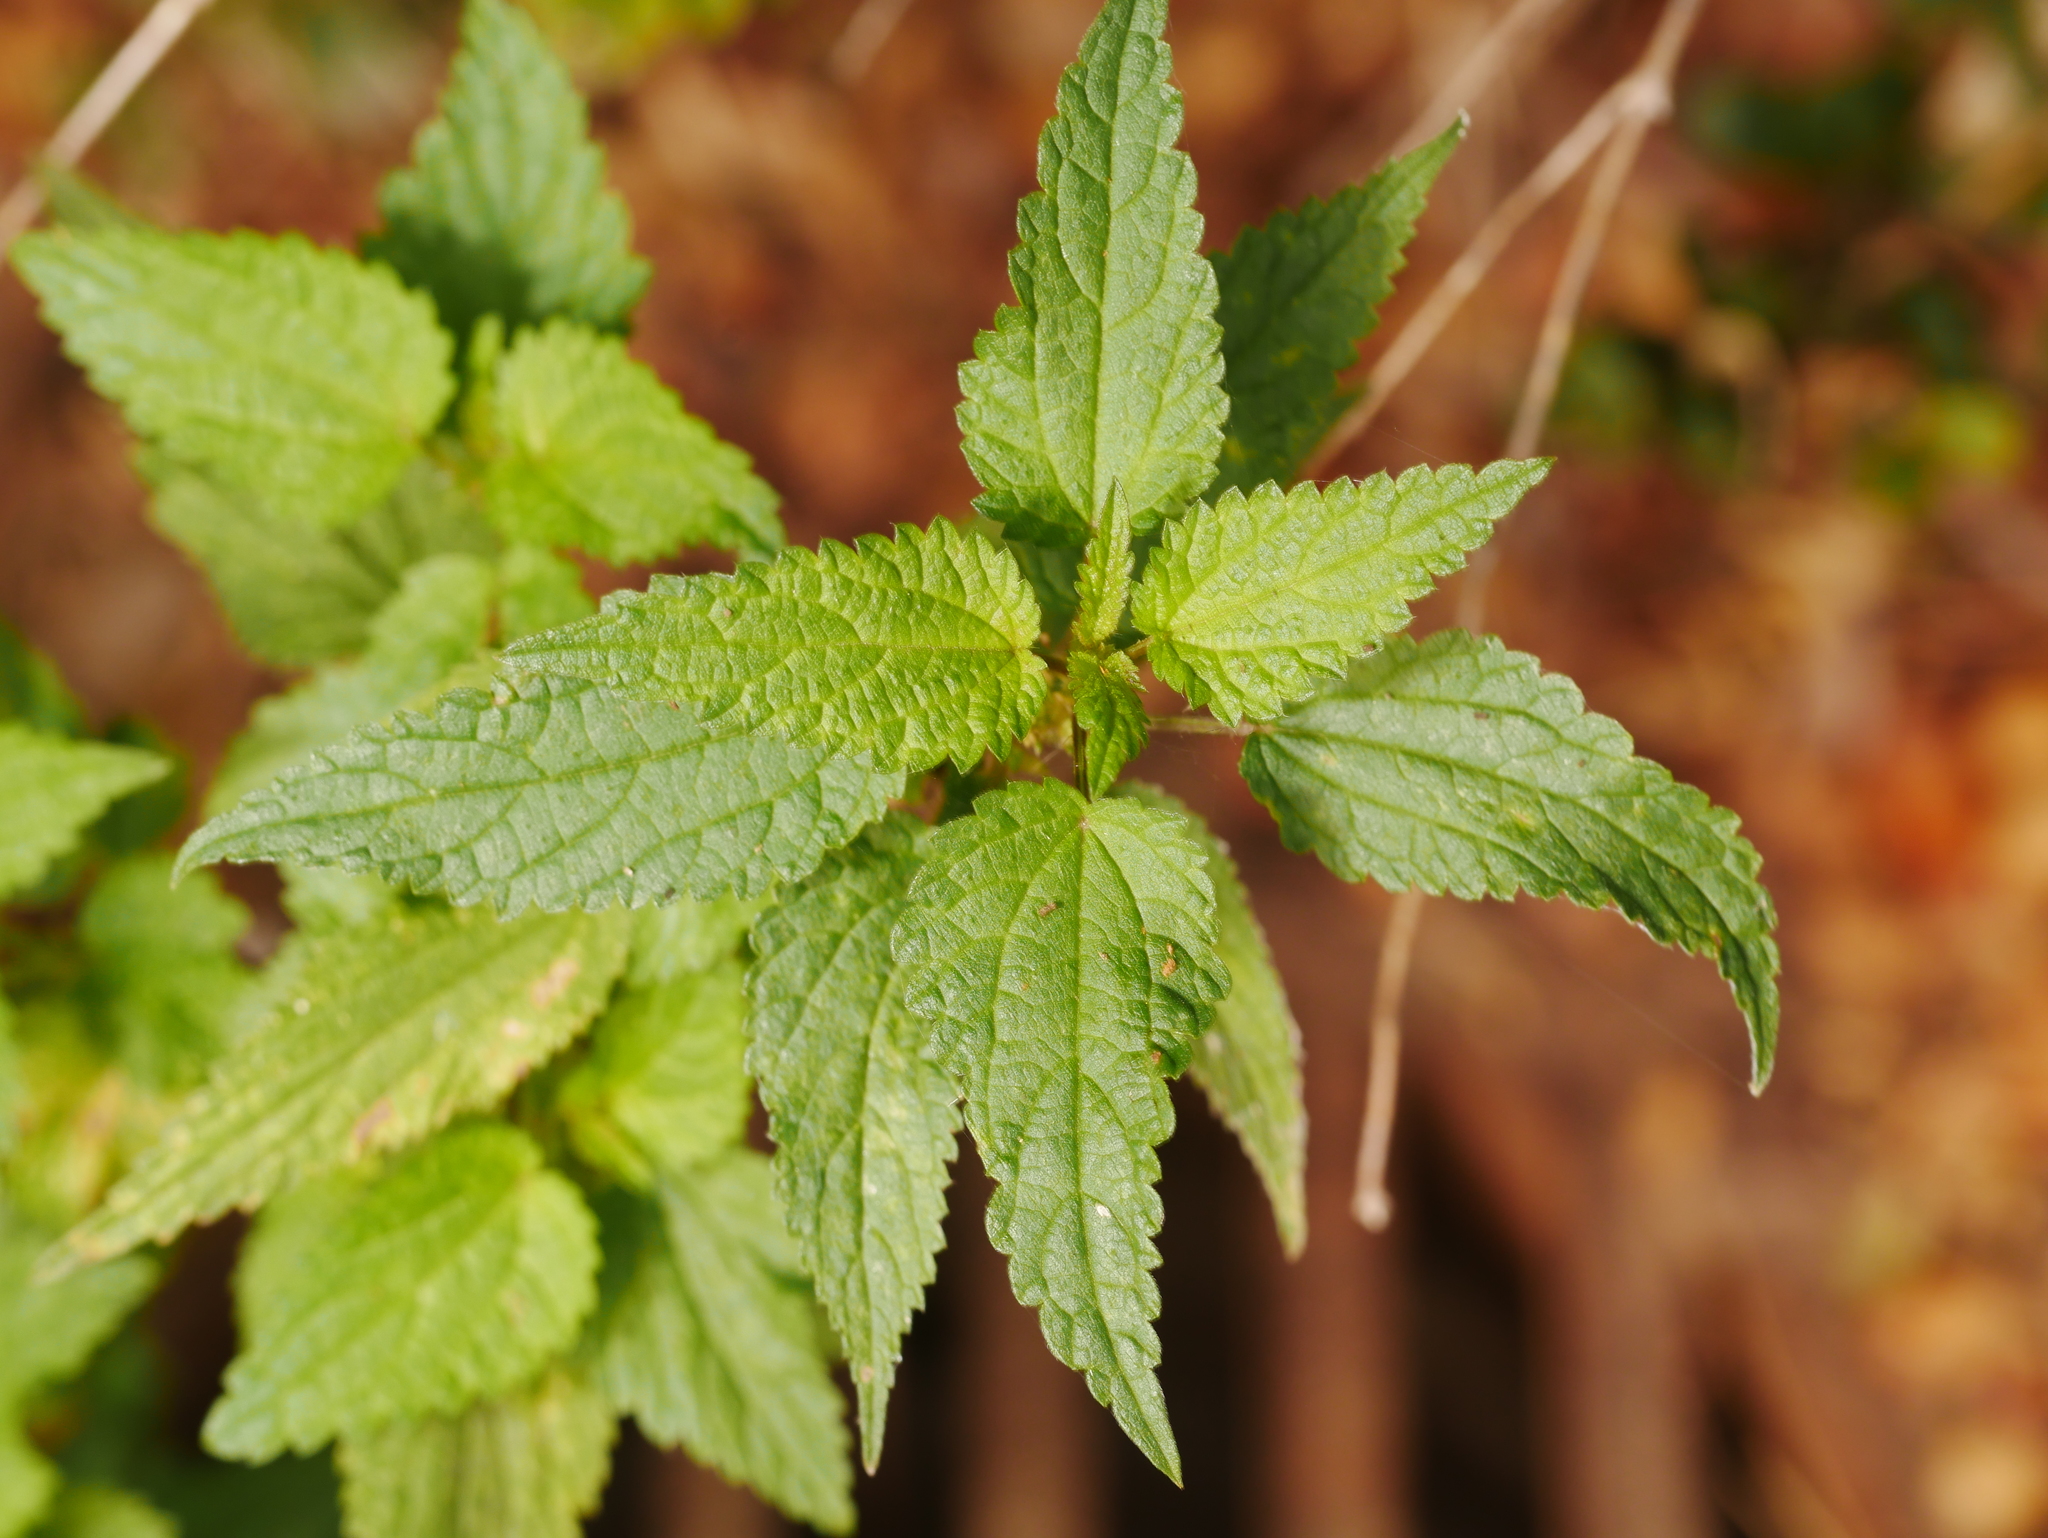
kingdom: Plantae
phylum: Tracheophyta
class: Magnoliopsida
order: Rosales
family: Urticaceae
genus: Urtica
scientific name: Urtica dioica
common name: Common nettle
